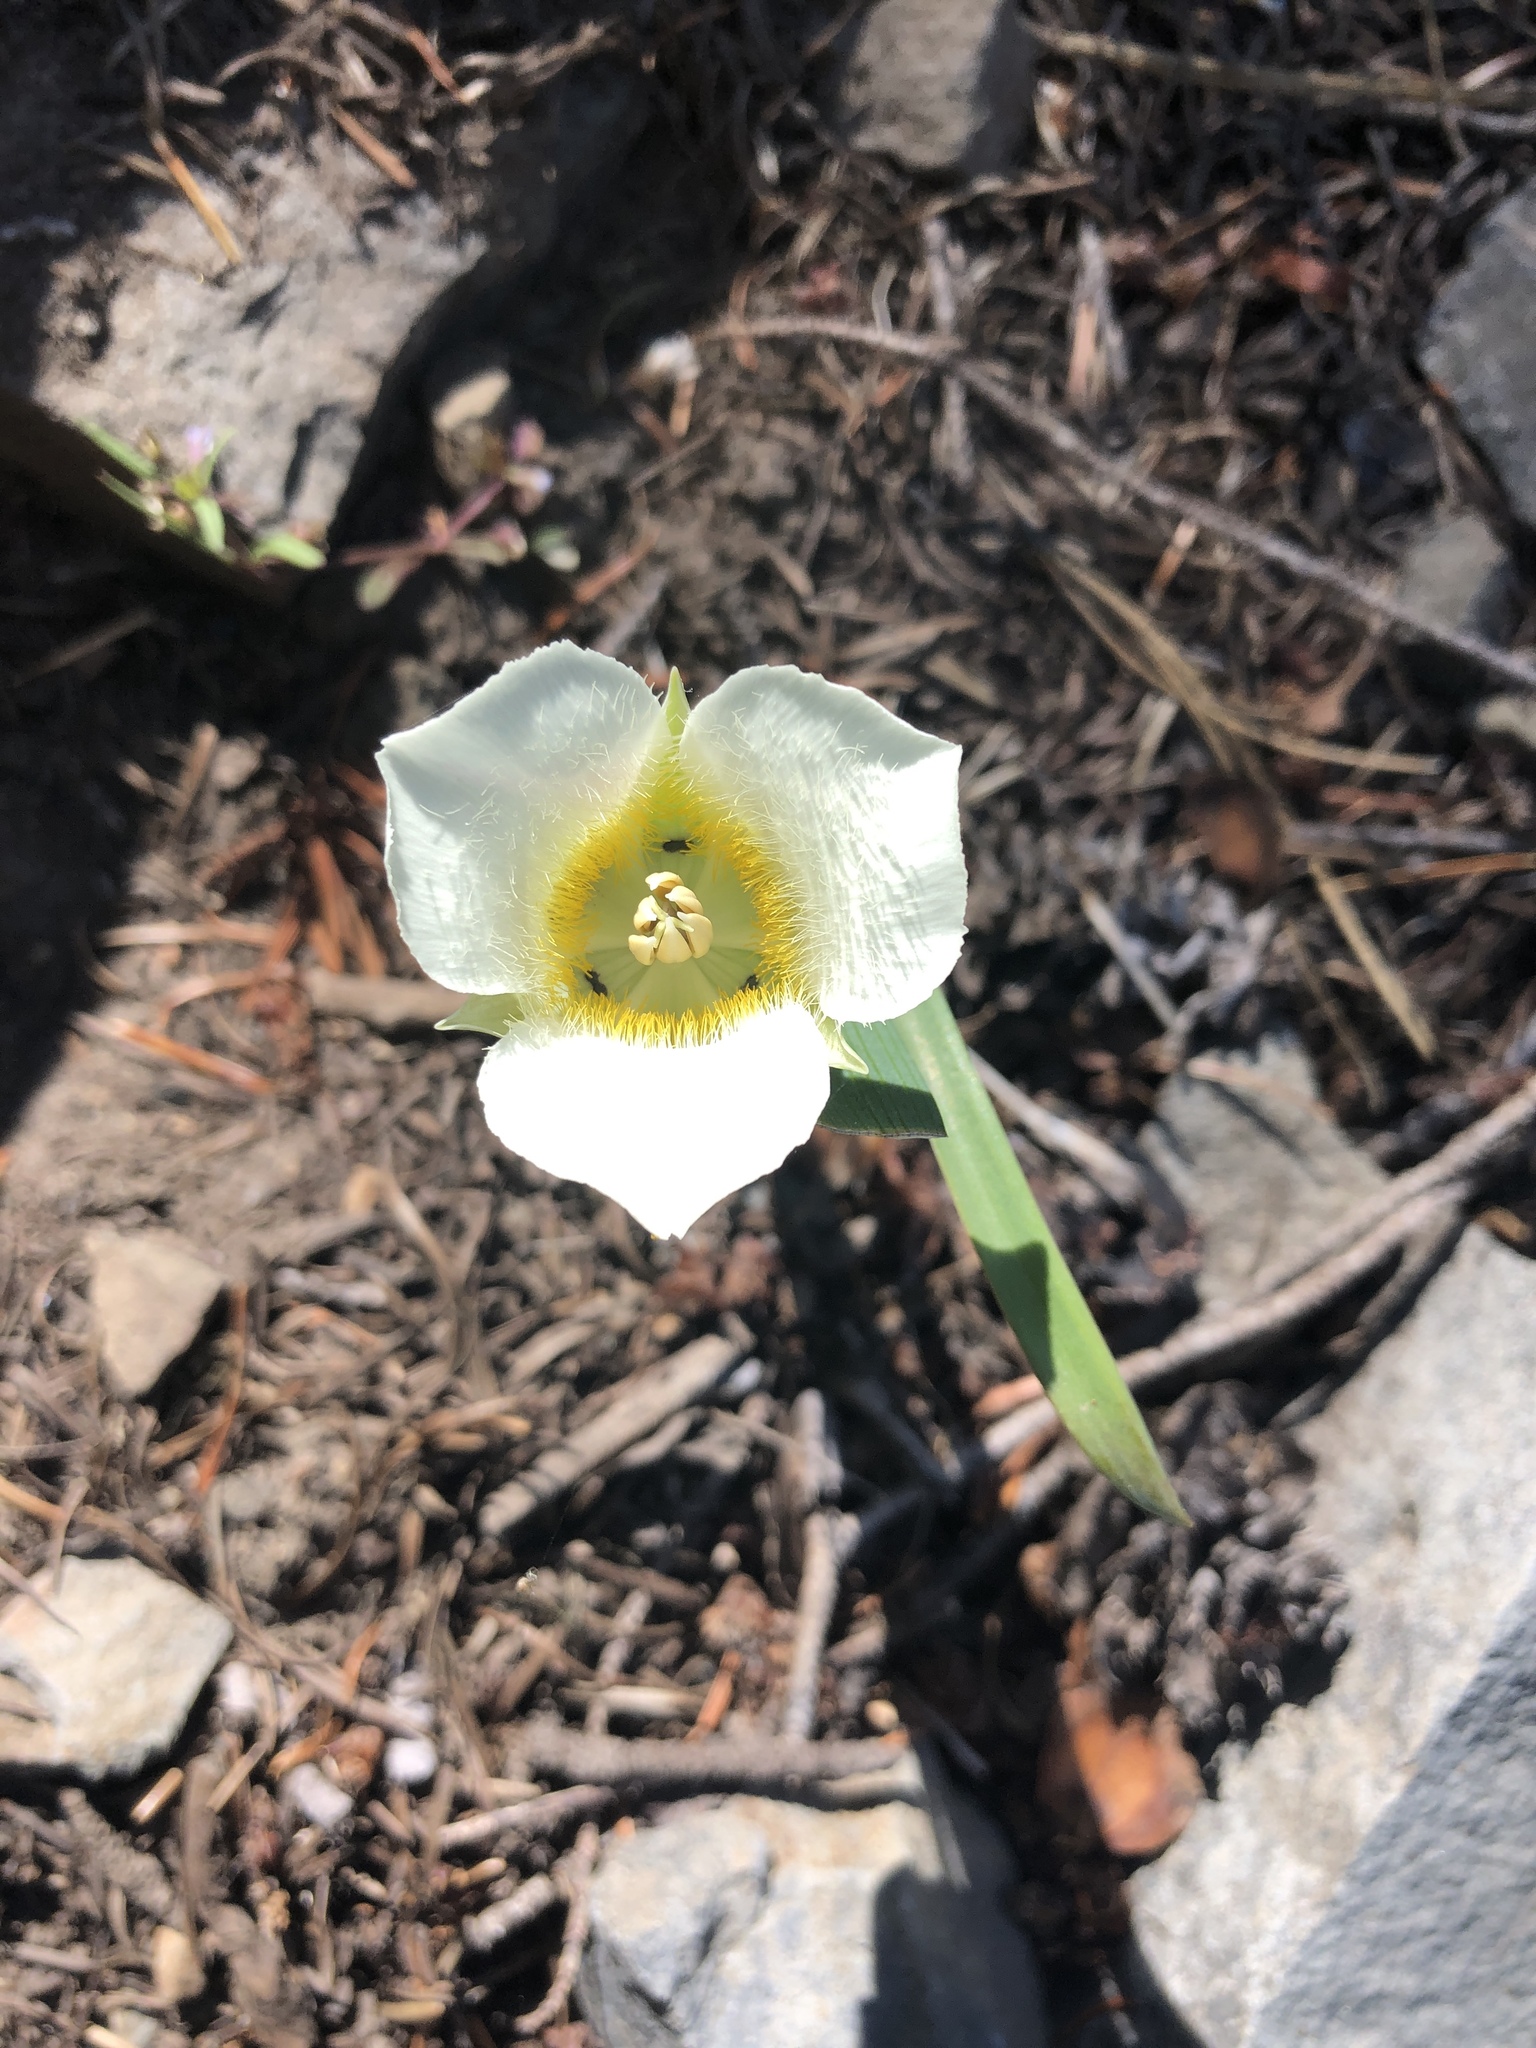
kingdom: Plantae
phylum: Tracheophyta
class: Liliopsida
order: Liliales
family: Liliaceae
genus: Calochortus
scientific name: Calochortus subalpinus
